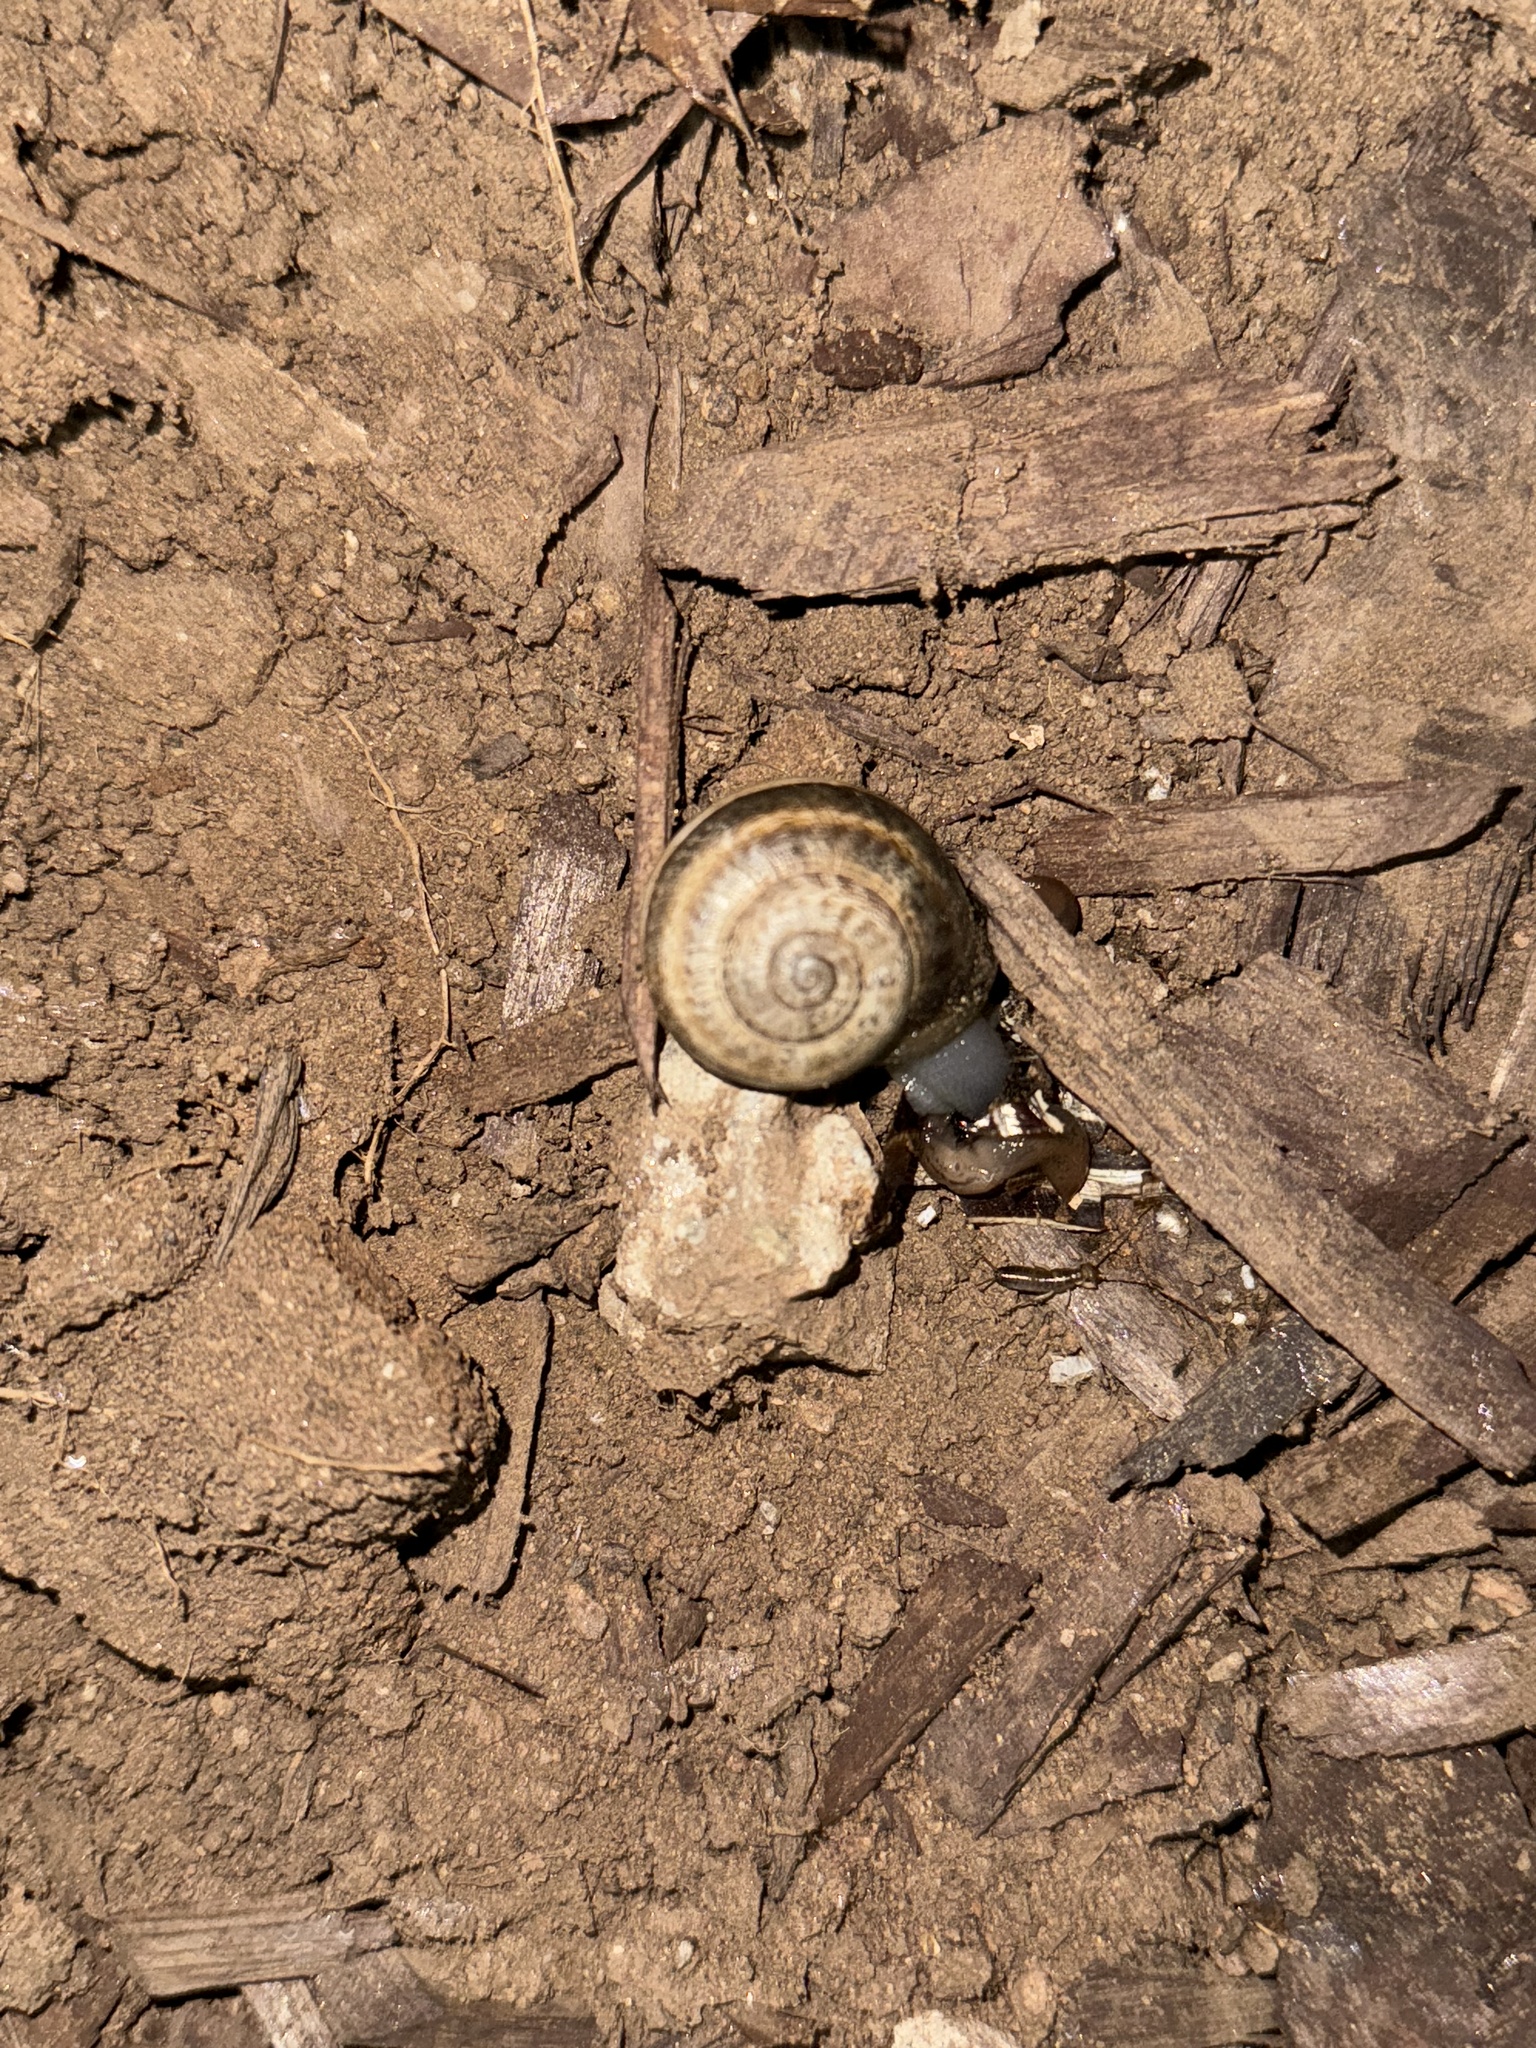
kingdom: Animalia
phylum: Mollusca
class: Gastropoda
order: Stylommatophora
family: Helicidae
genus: Otala
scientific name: Otala lactea
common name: Milk snail
